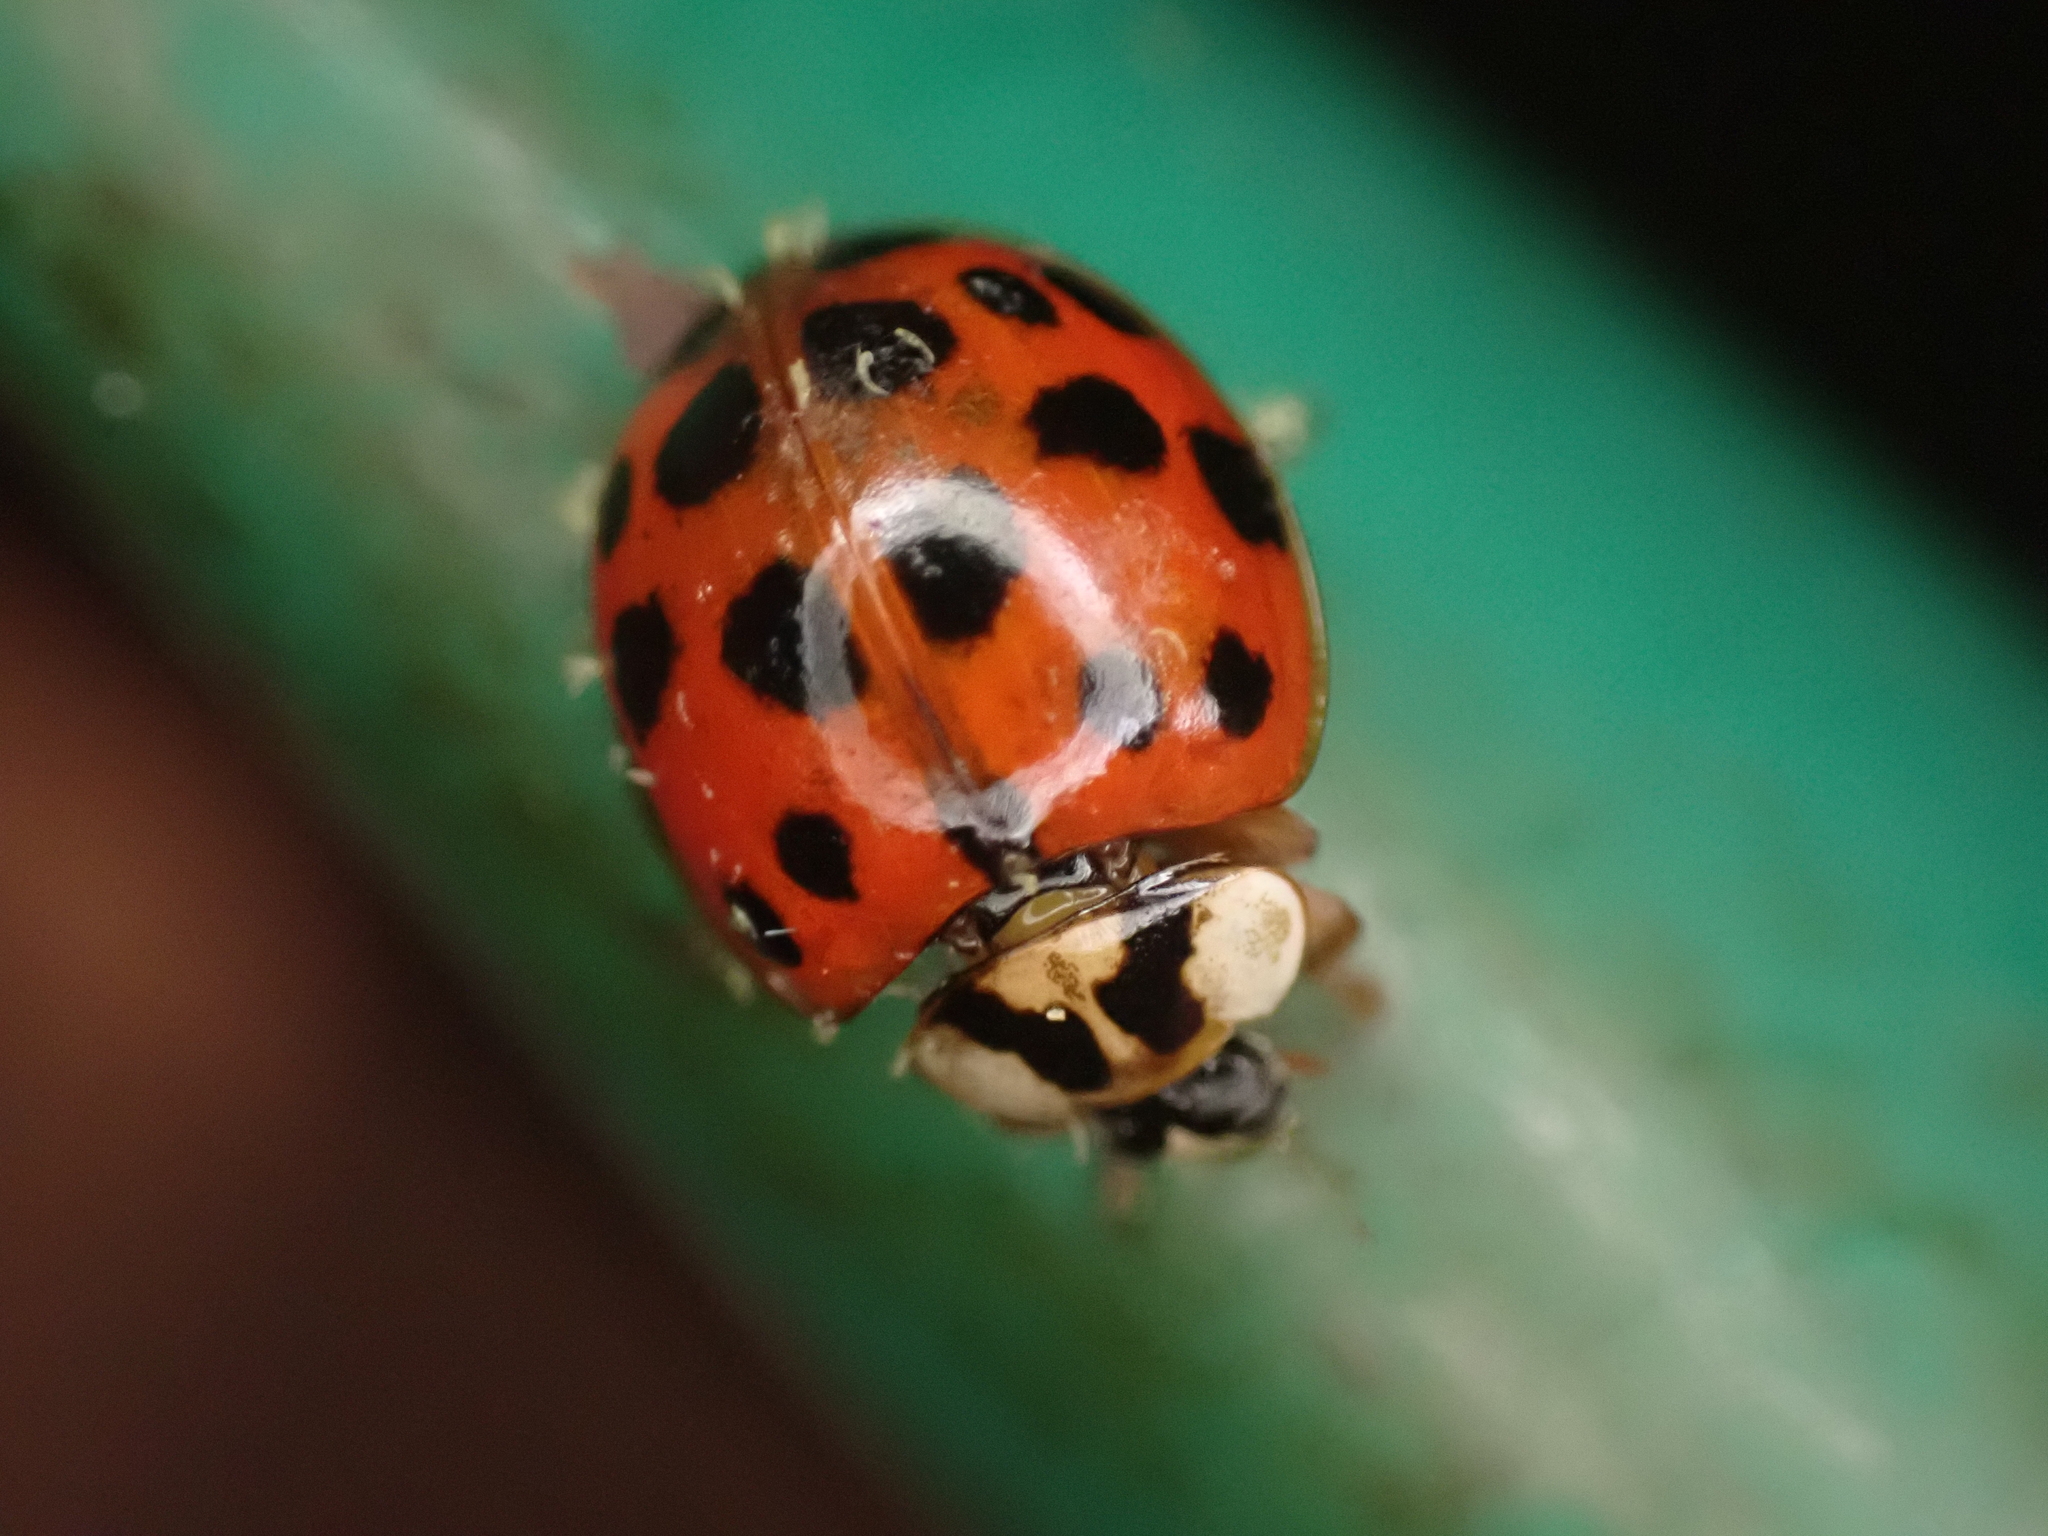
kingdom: Animalia
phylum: Arthropoda
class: Insecta
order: Coleoptera
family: Coccinellidae
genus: Harmonia
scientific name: Harmonia axyridis
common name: Harlequin ladybird
